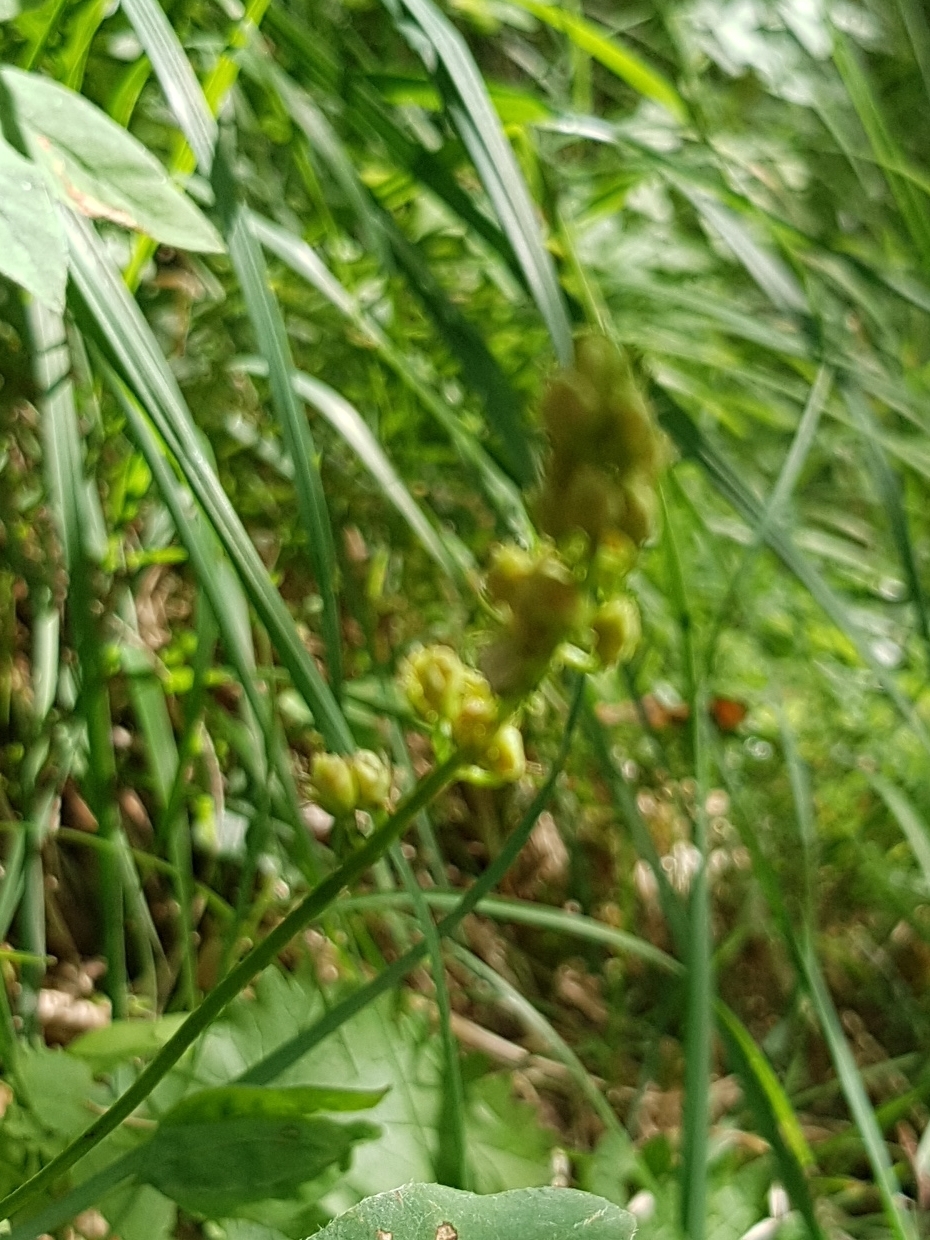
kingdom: Plantae
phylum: Tracheophyta
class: Liliopsida
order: Alismatales
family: Tofieldiaceae
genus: Tofieldia
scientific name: Tofieldia calyculata
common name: German-asphodel
